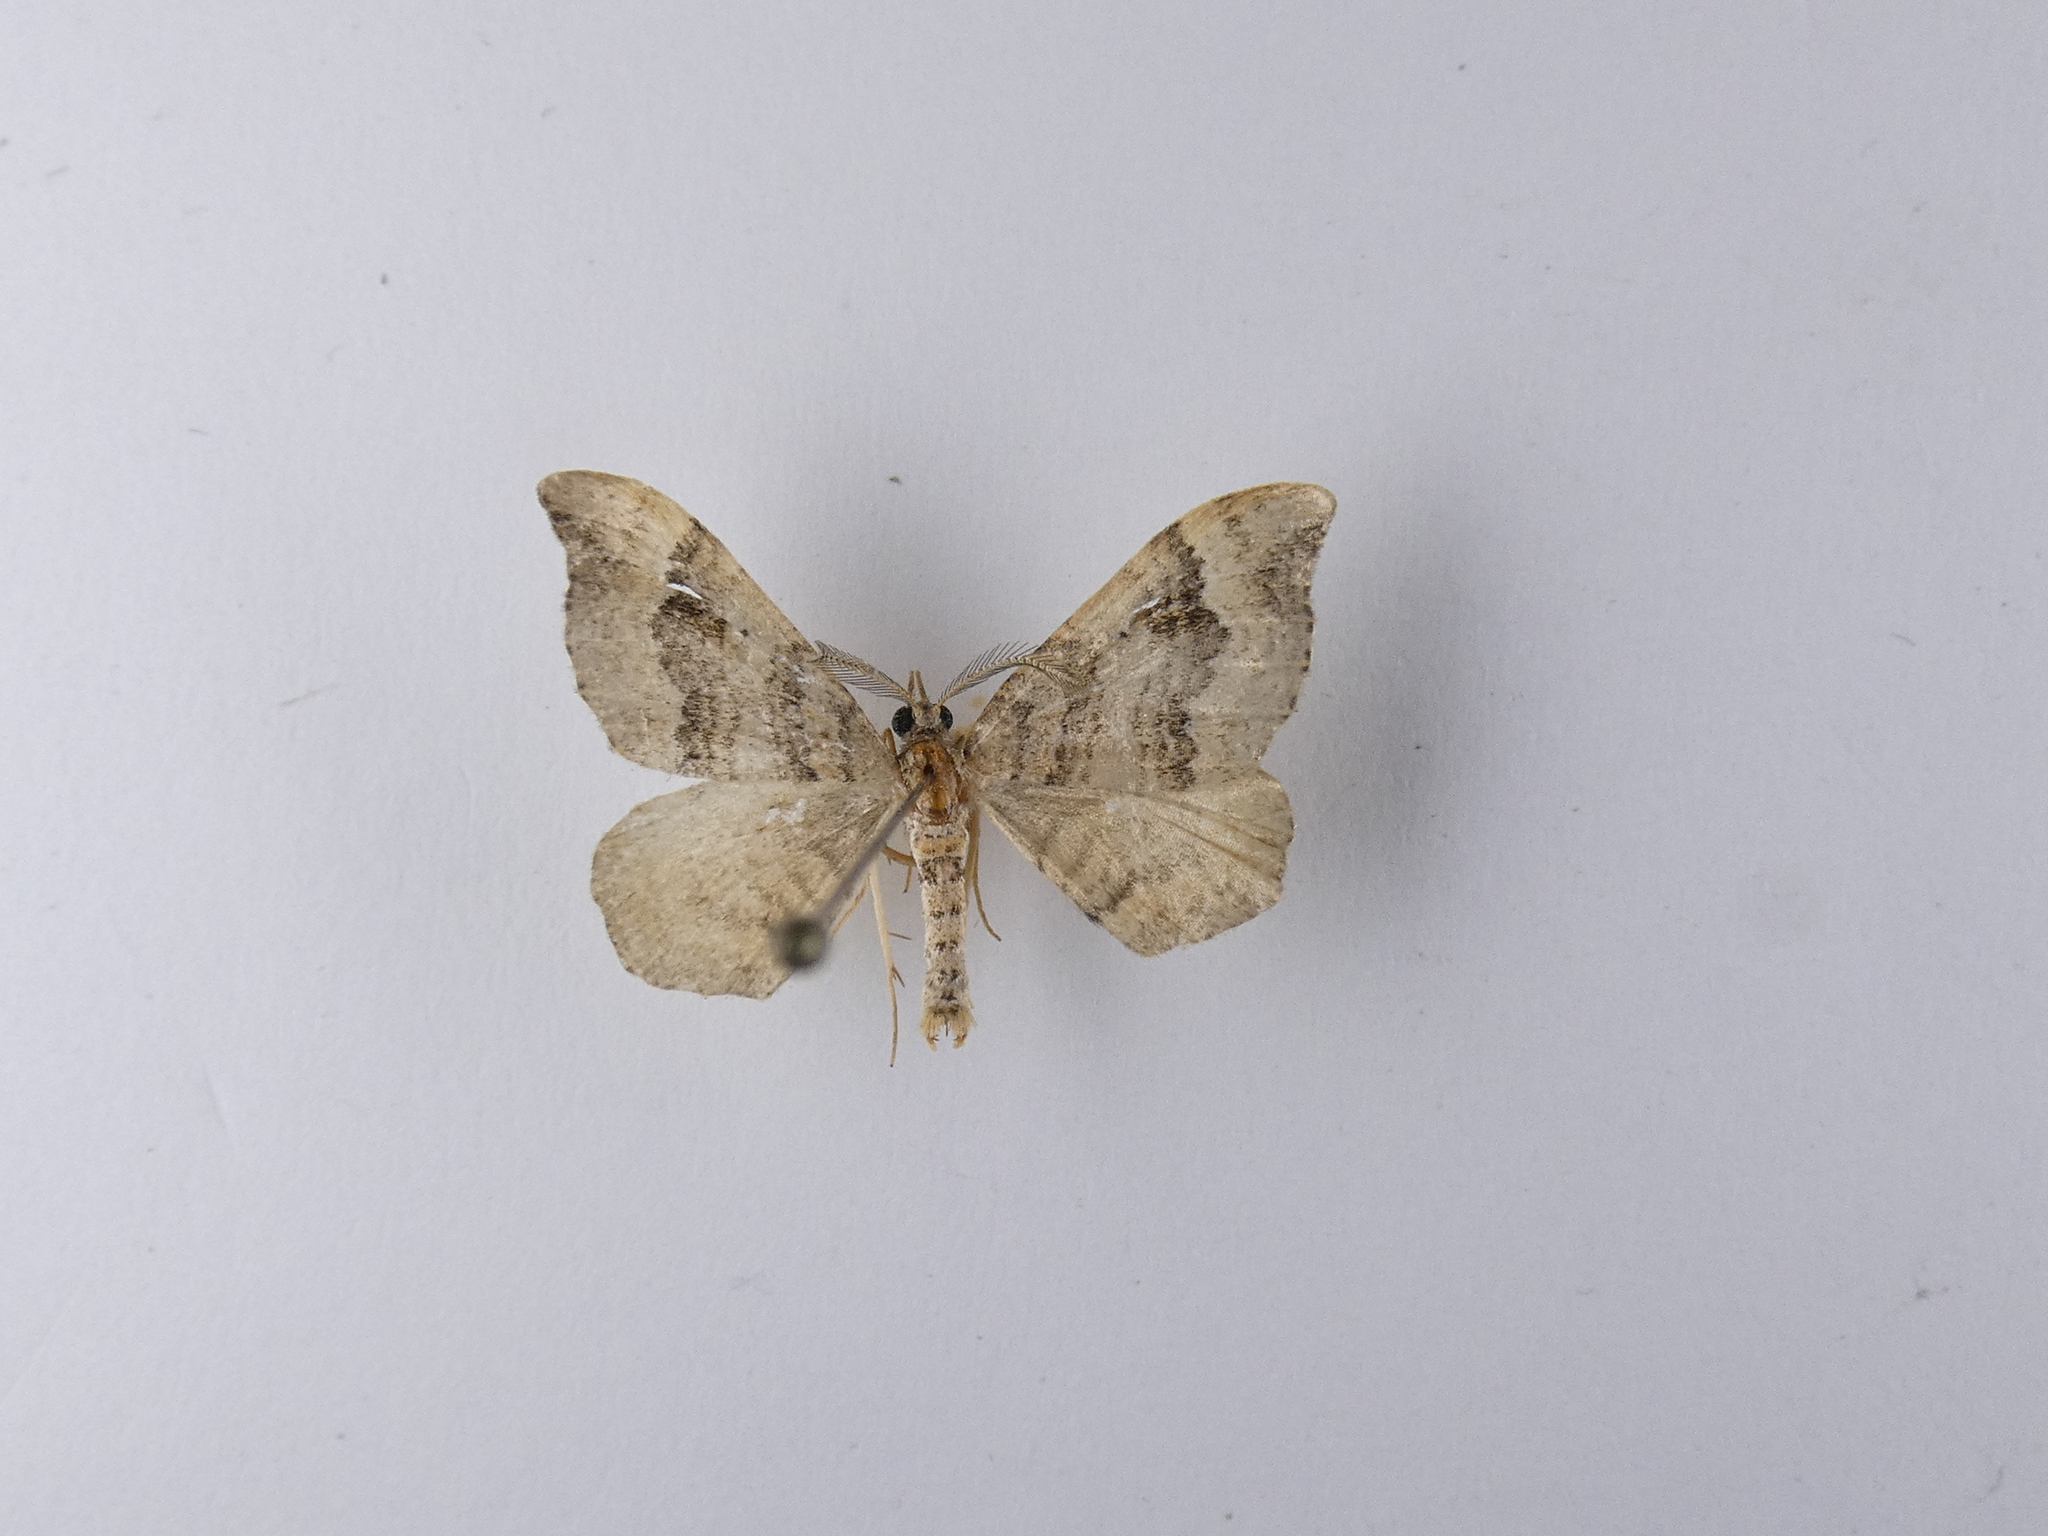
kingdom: Animalia
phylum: Arthropoda
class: Insecta
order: Lepidoptera
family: Geometridae
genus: Homodotis
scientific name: Homodotis megaspilata
